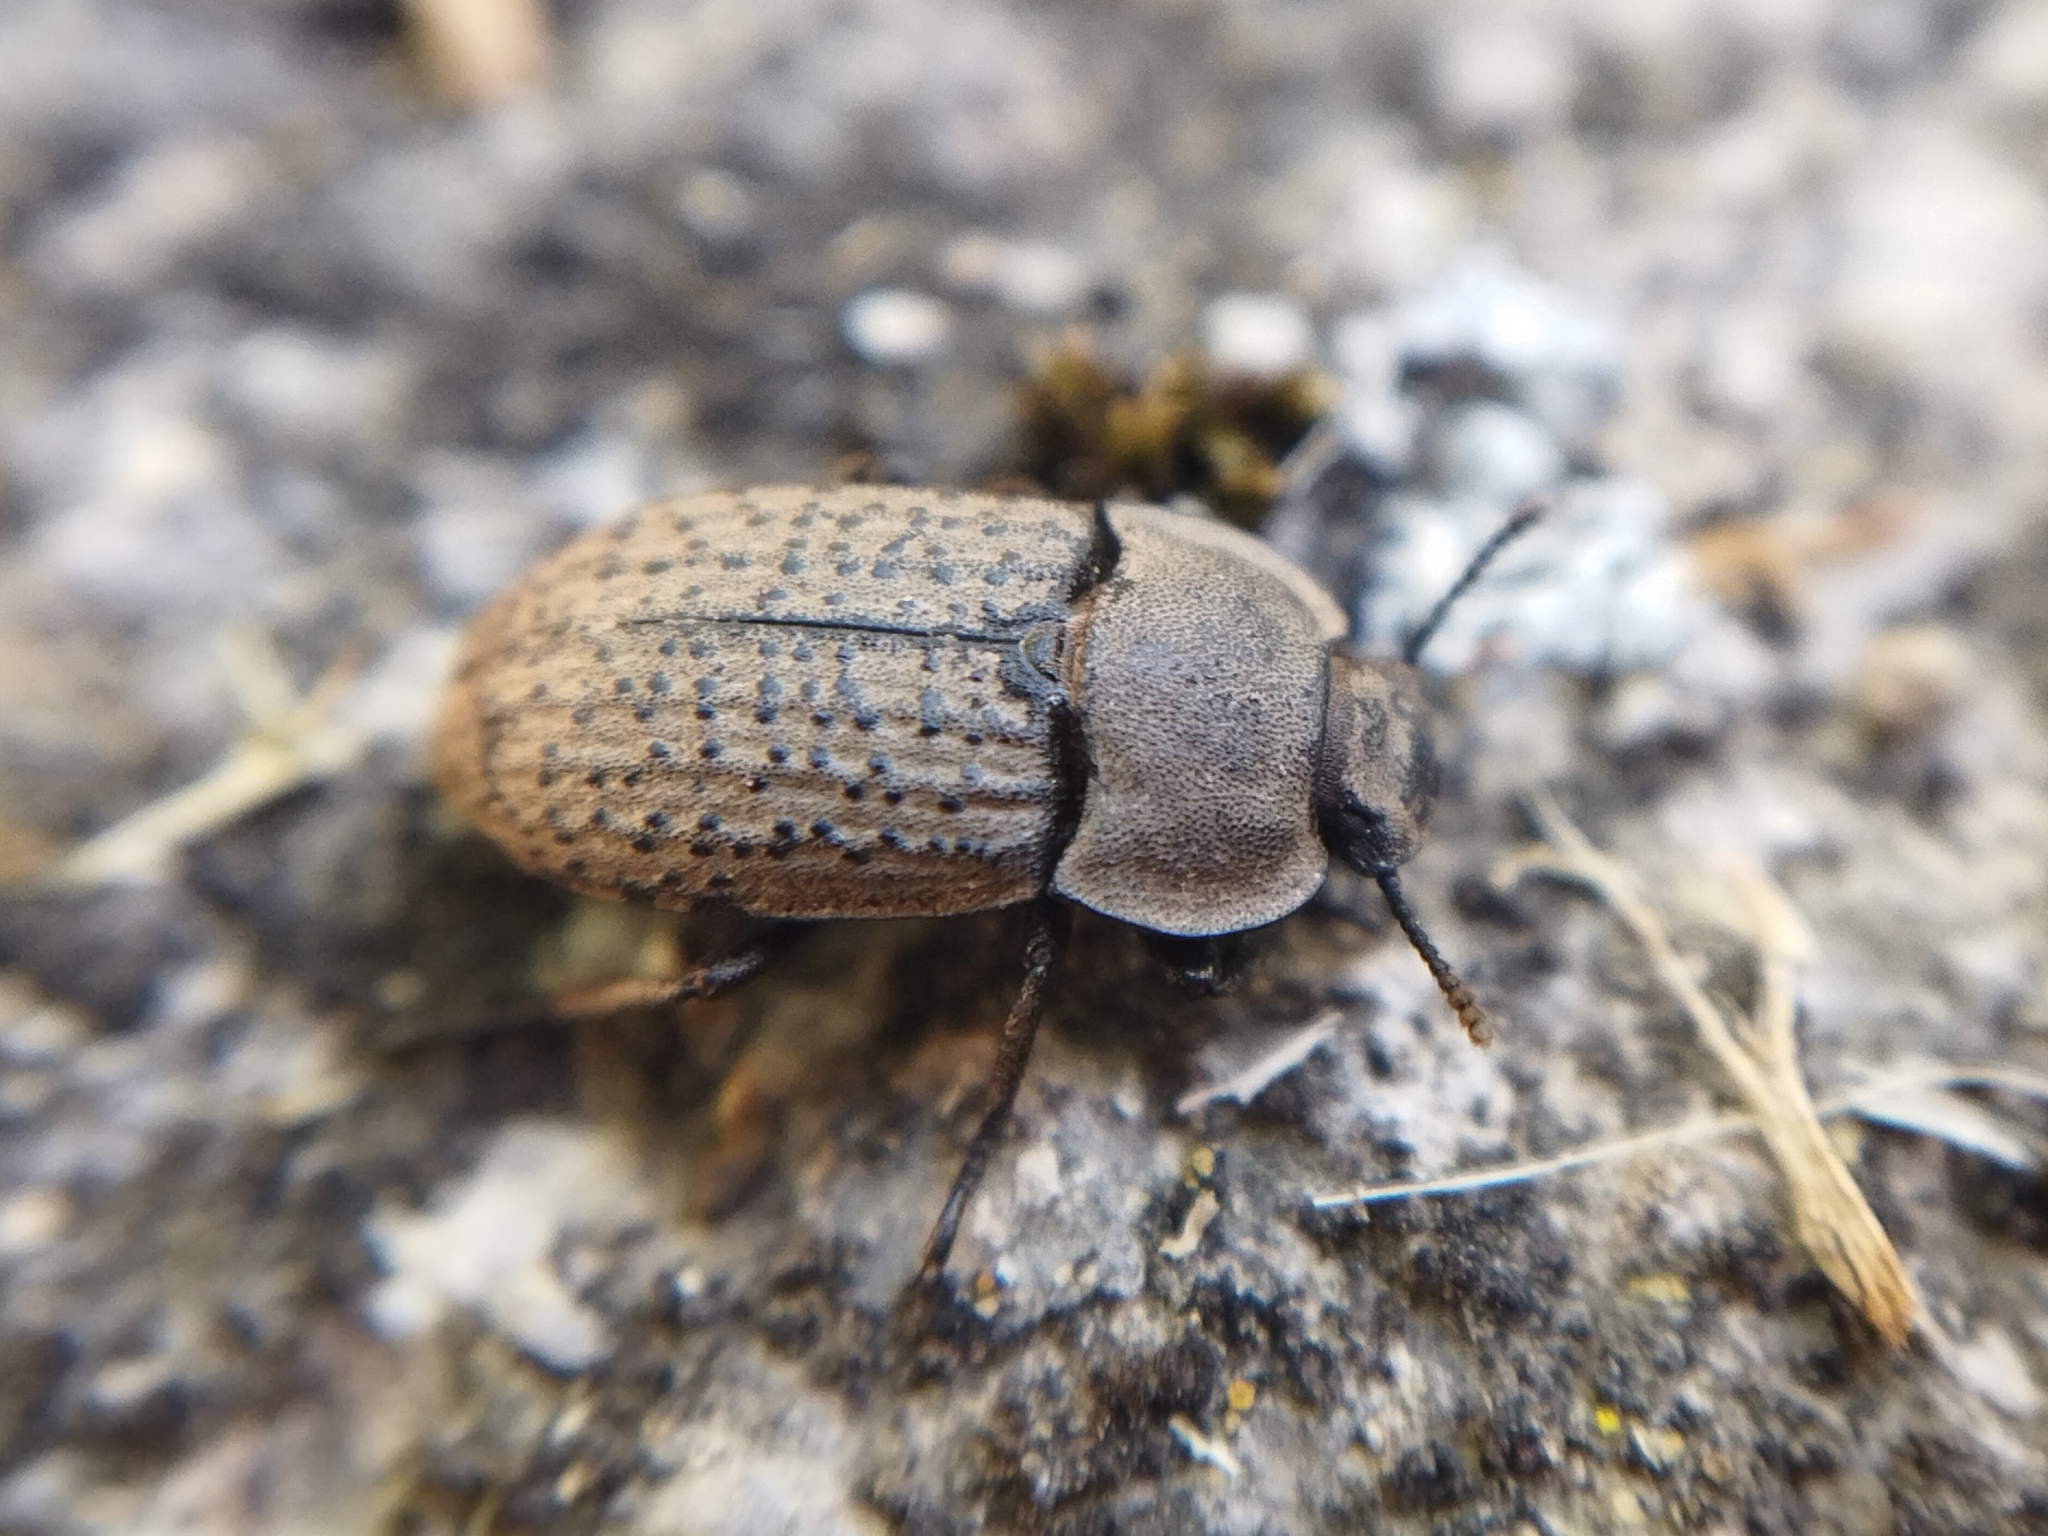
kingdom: Animalia
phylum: Arthropoda
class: Insecta
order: Coleoptera
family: Tenebrionidae
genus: Opatrum
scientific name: Opatrum sabulosum
